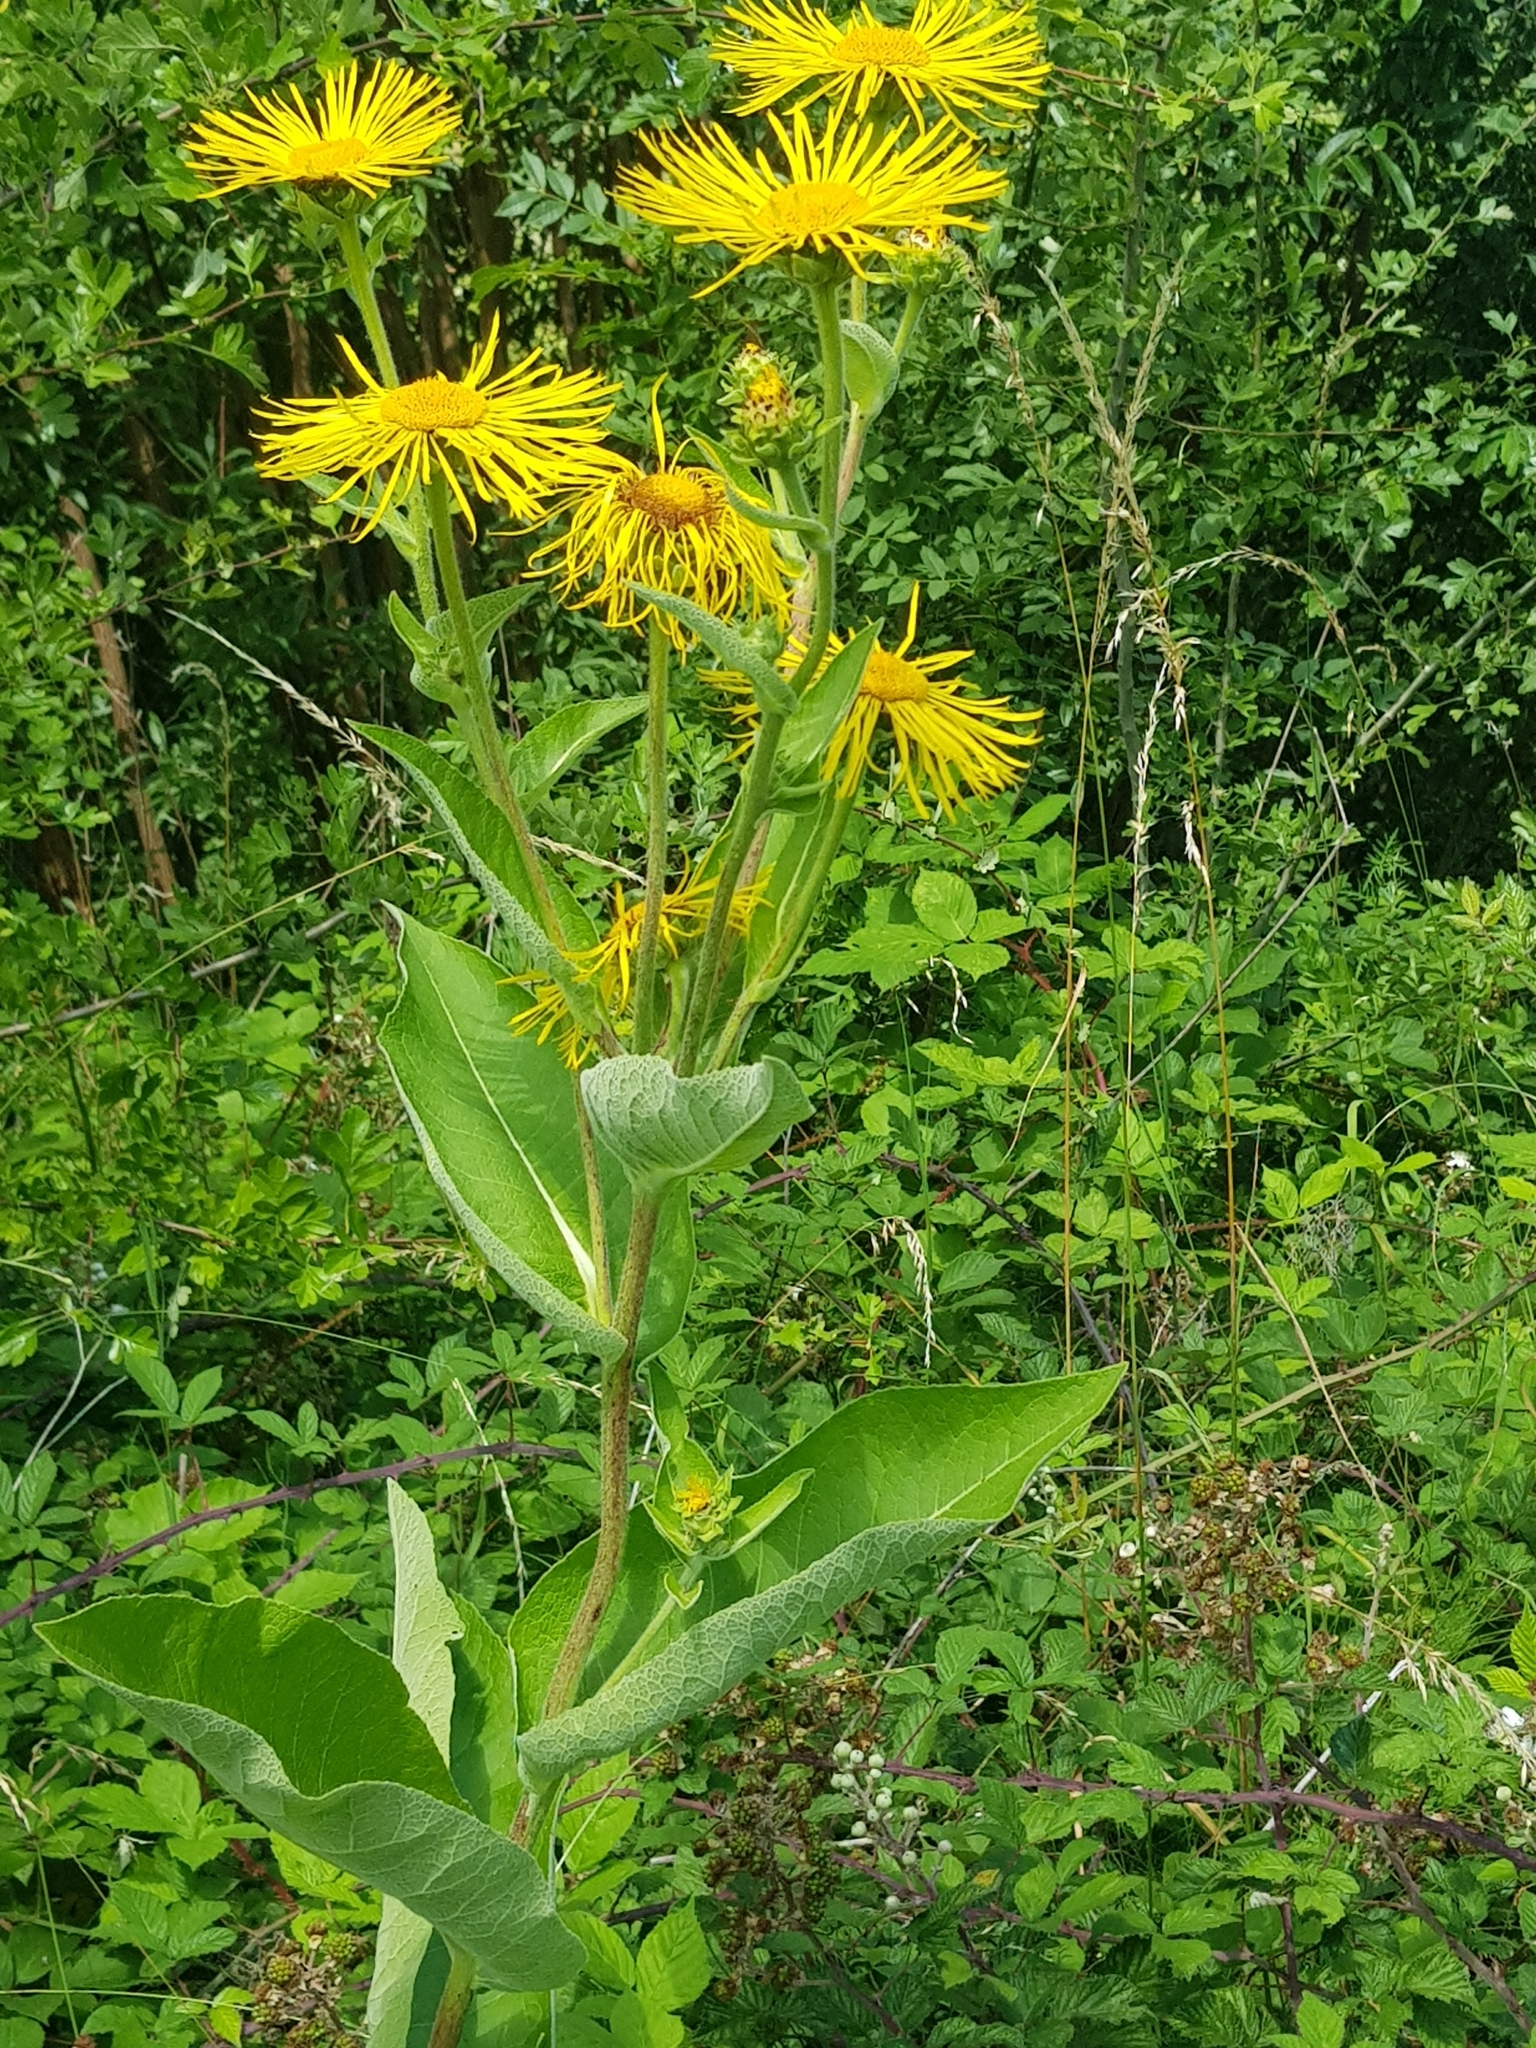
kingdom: Plantae
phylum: Tracheophyta
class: Magnoliopsida
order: Asterales
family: Asteraceae
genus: Inula
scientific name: Inula helenium
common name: Elecampane
